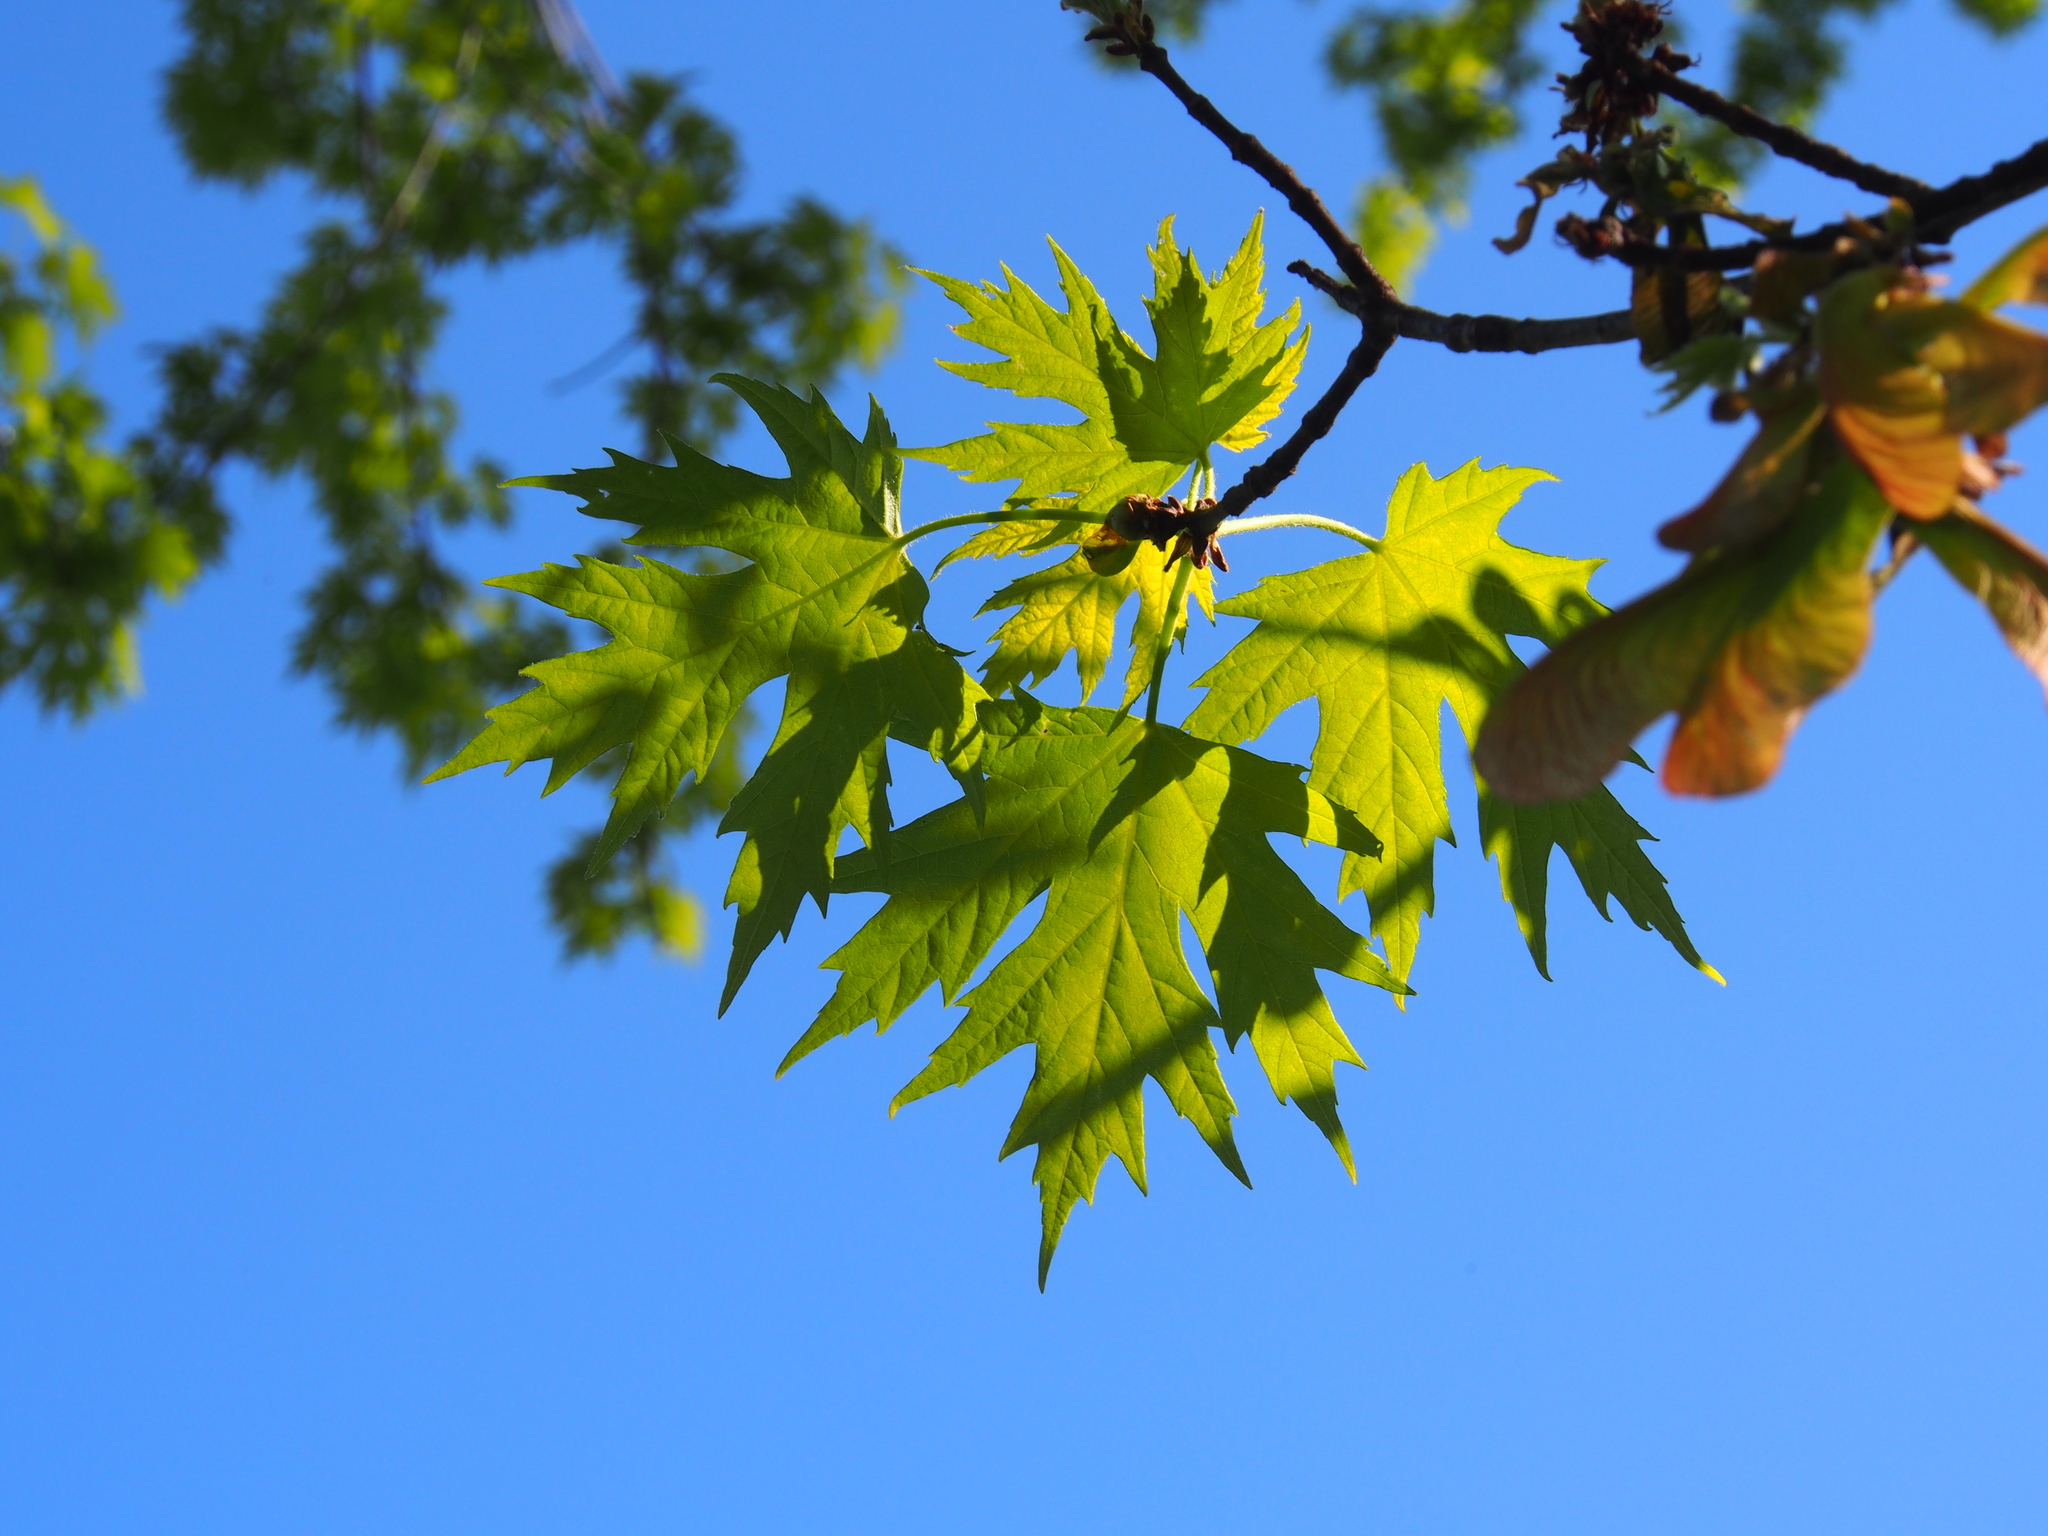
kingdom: Plantae
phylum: Tracheophyta
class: Magnoliopsida
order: Sapindales
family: Sapindaceae
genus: Acer
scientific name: Acer saccharinum
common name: Silver maple
